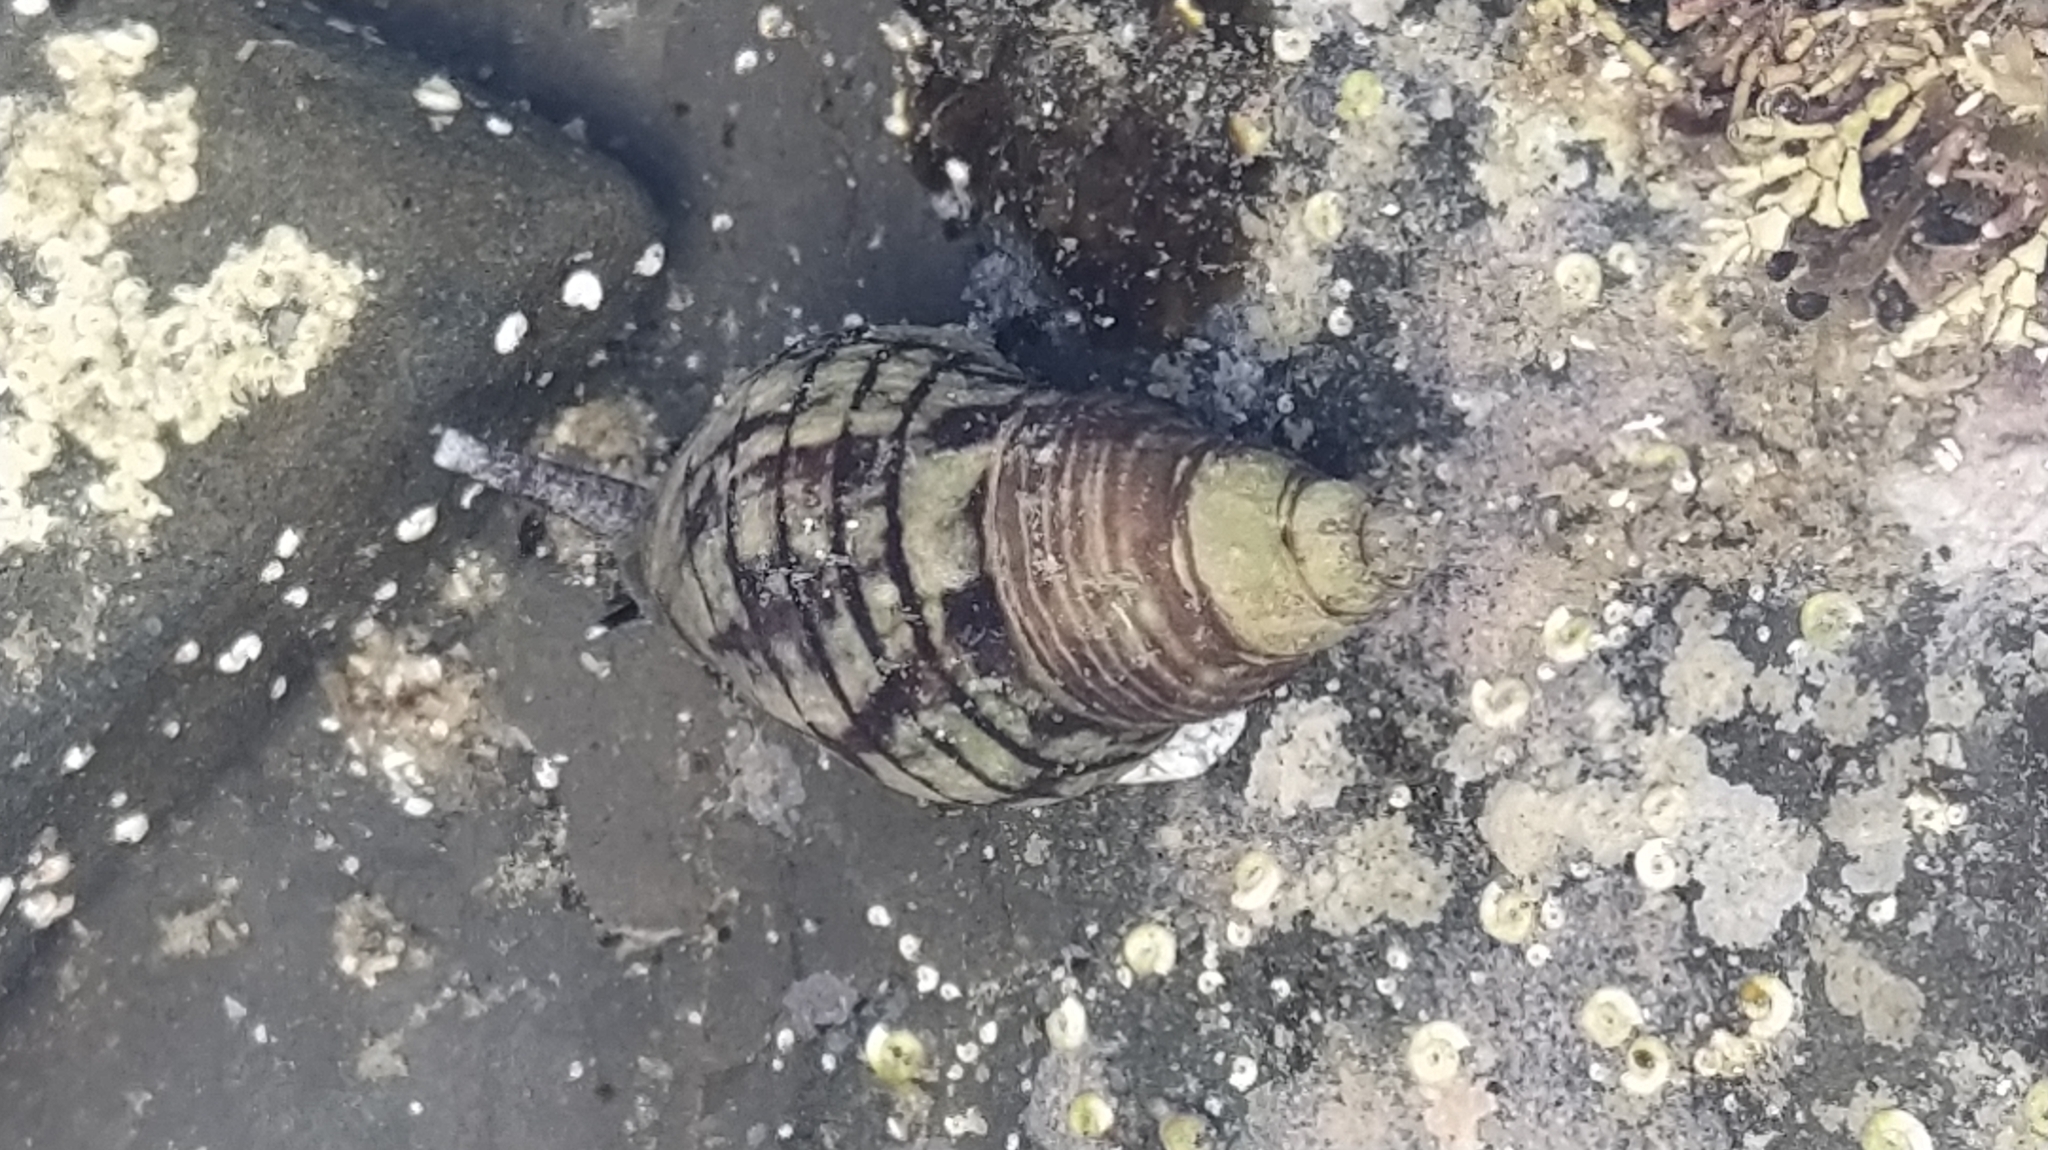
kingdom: Animalia
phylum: Mollusca
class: Gastropoda
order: Neogastropoda
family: Cominellidae
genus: Cominella
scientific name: Cominella virgata
